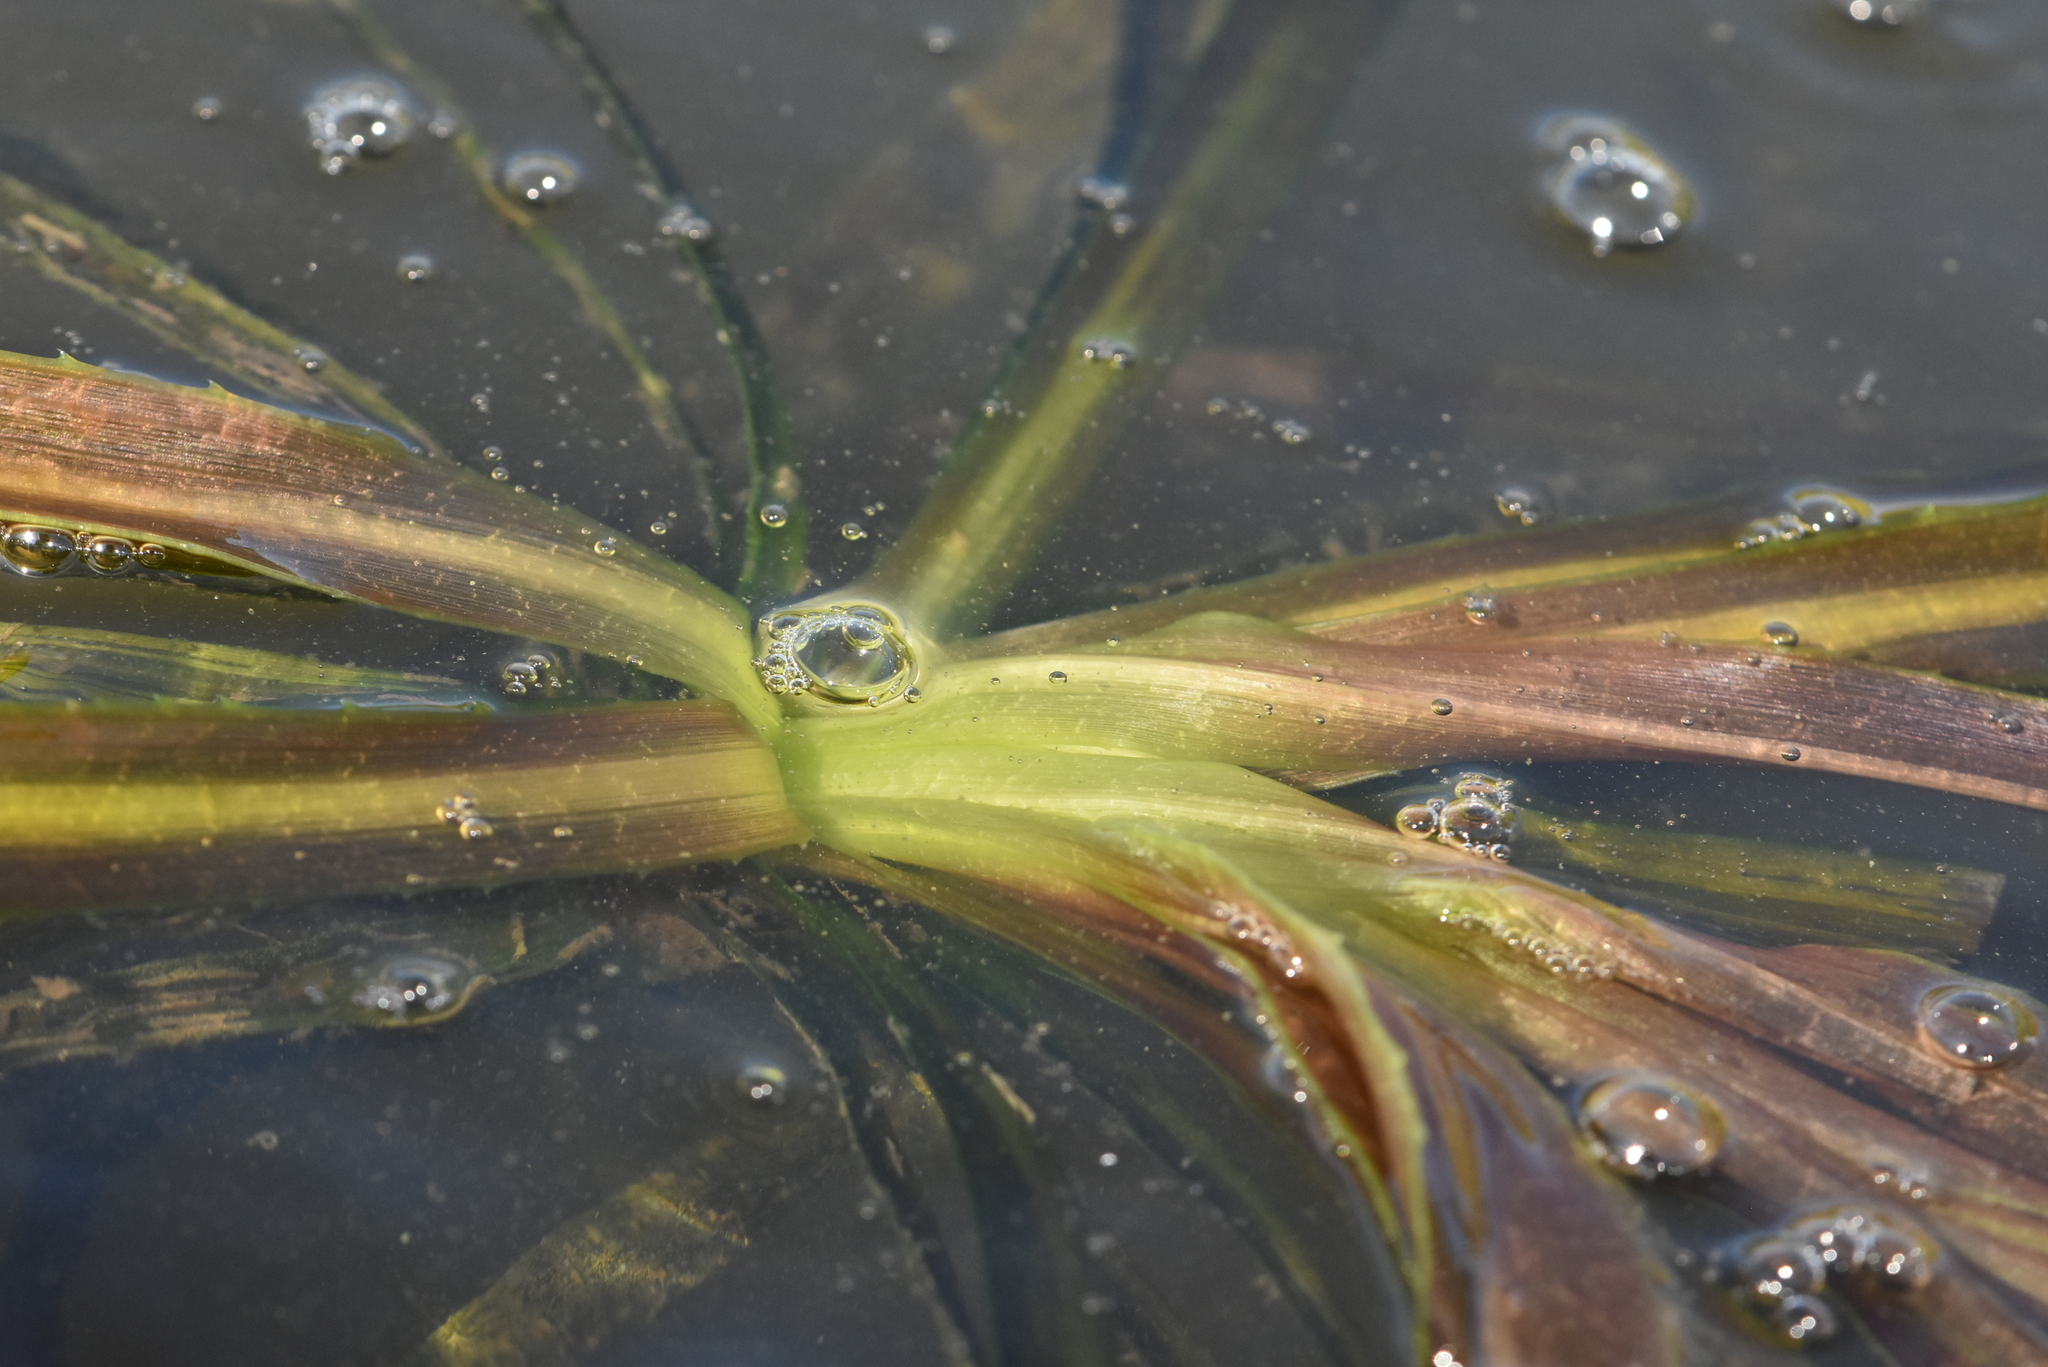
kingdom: Plantae
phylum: Tracheophyta
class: Liliopsida
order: Alismatales
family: Hydrocharitaceae
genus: Stratiotes
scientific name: Stratiotes aloides
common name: Water-soldier
